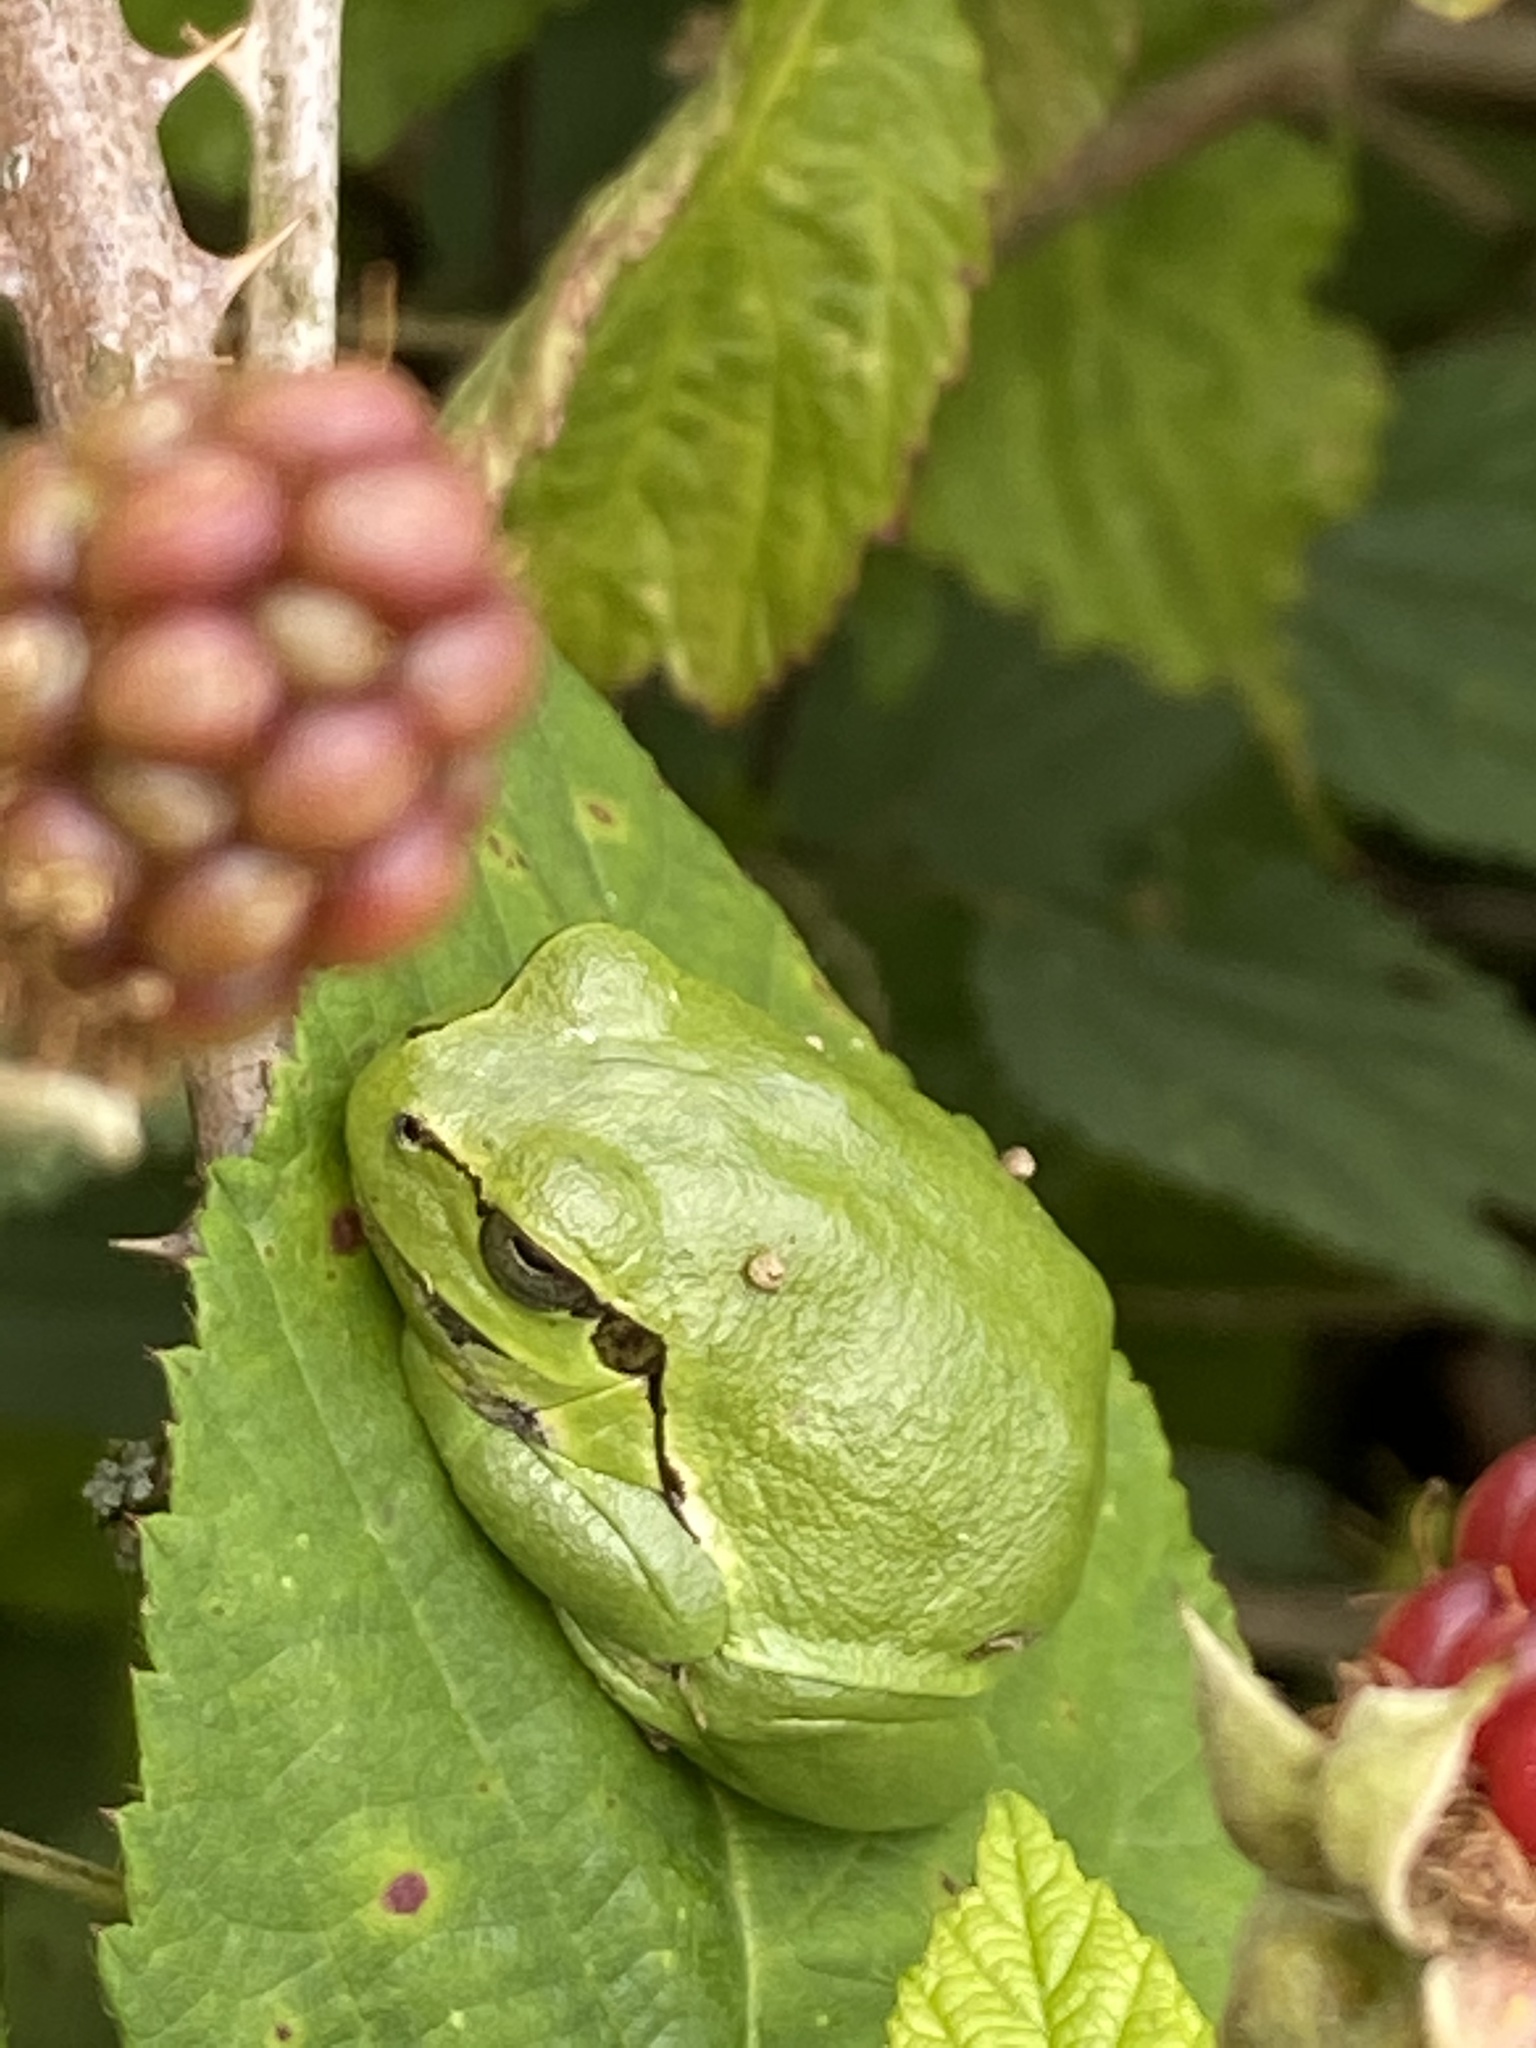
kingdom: Animalia
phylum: Chordata
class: Amphibia
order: Anura
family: Hylidae
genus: Hyla
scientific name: Hyla arborea
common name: Common tree frog
